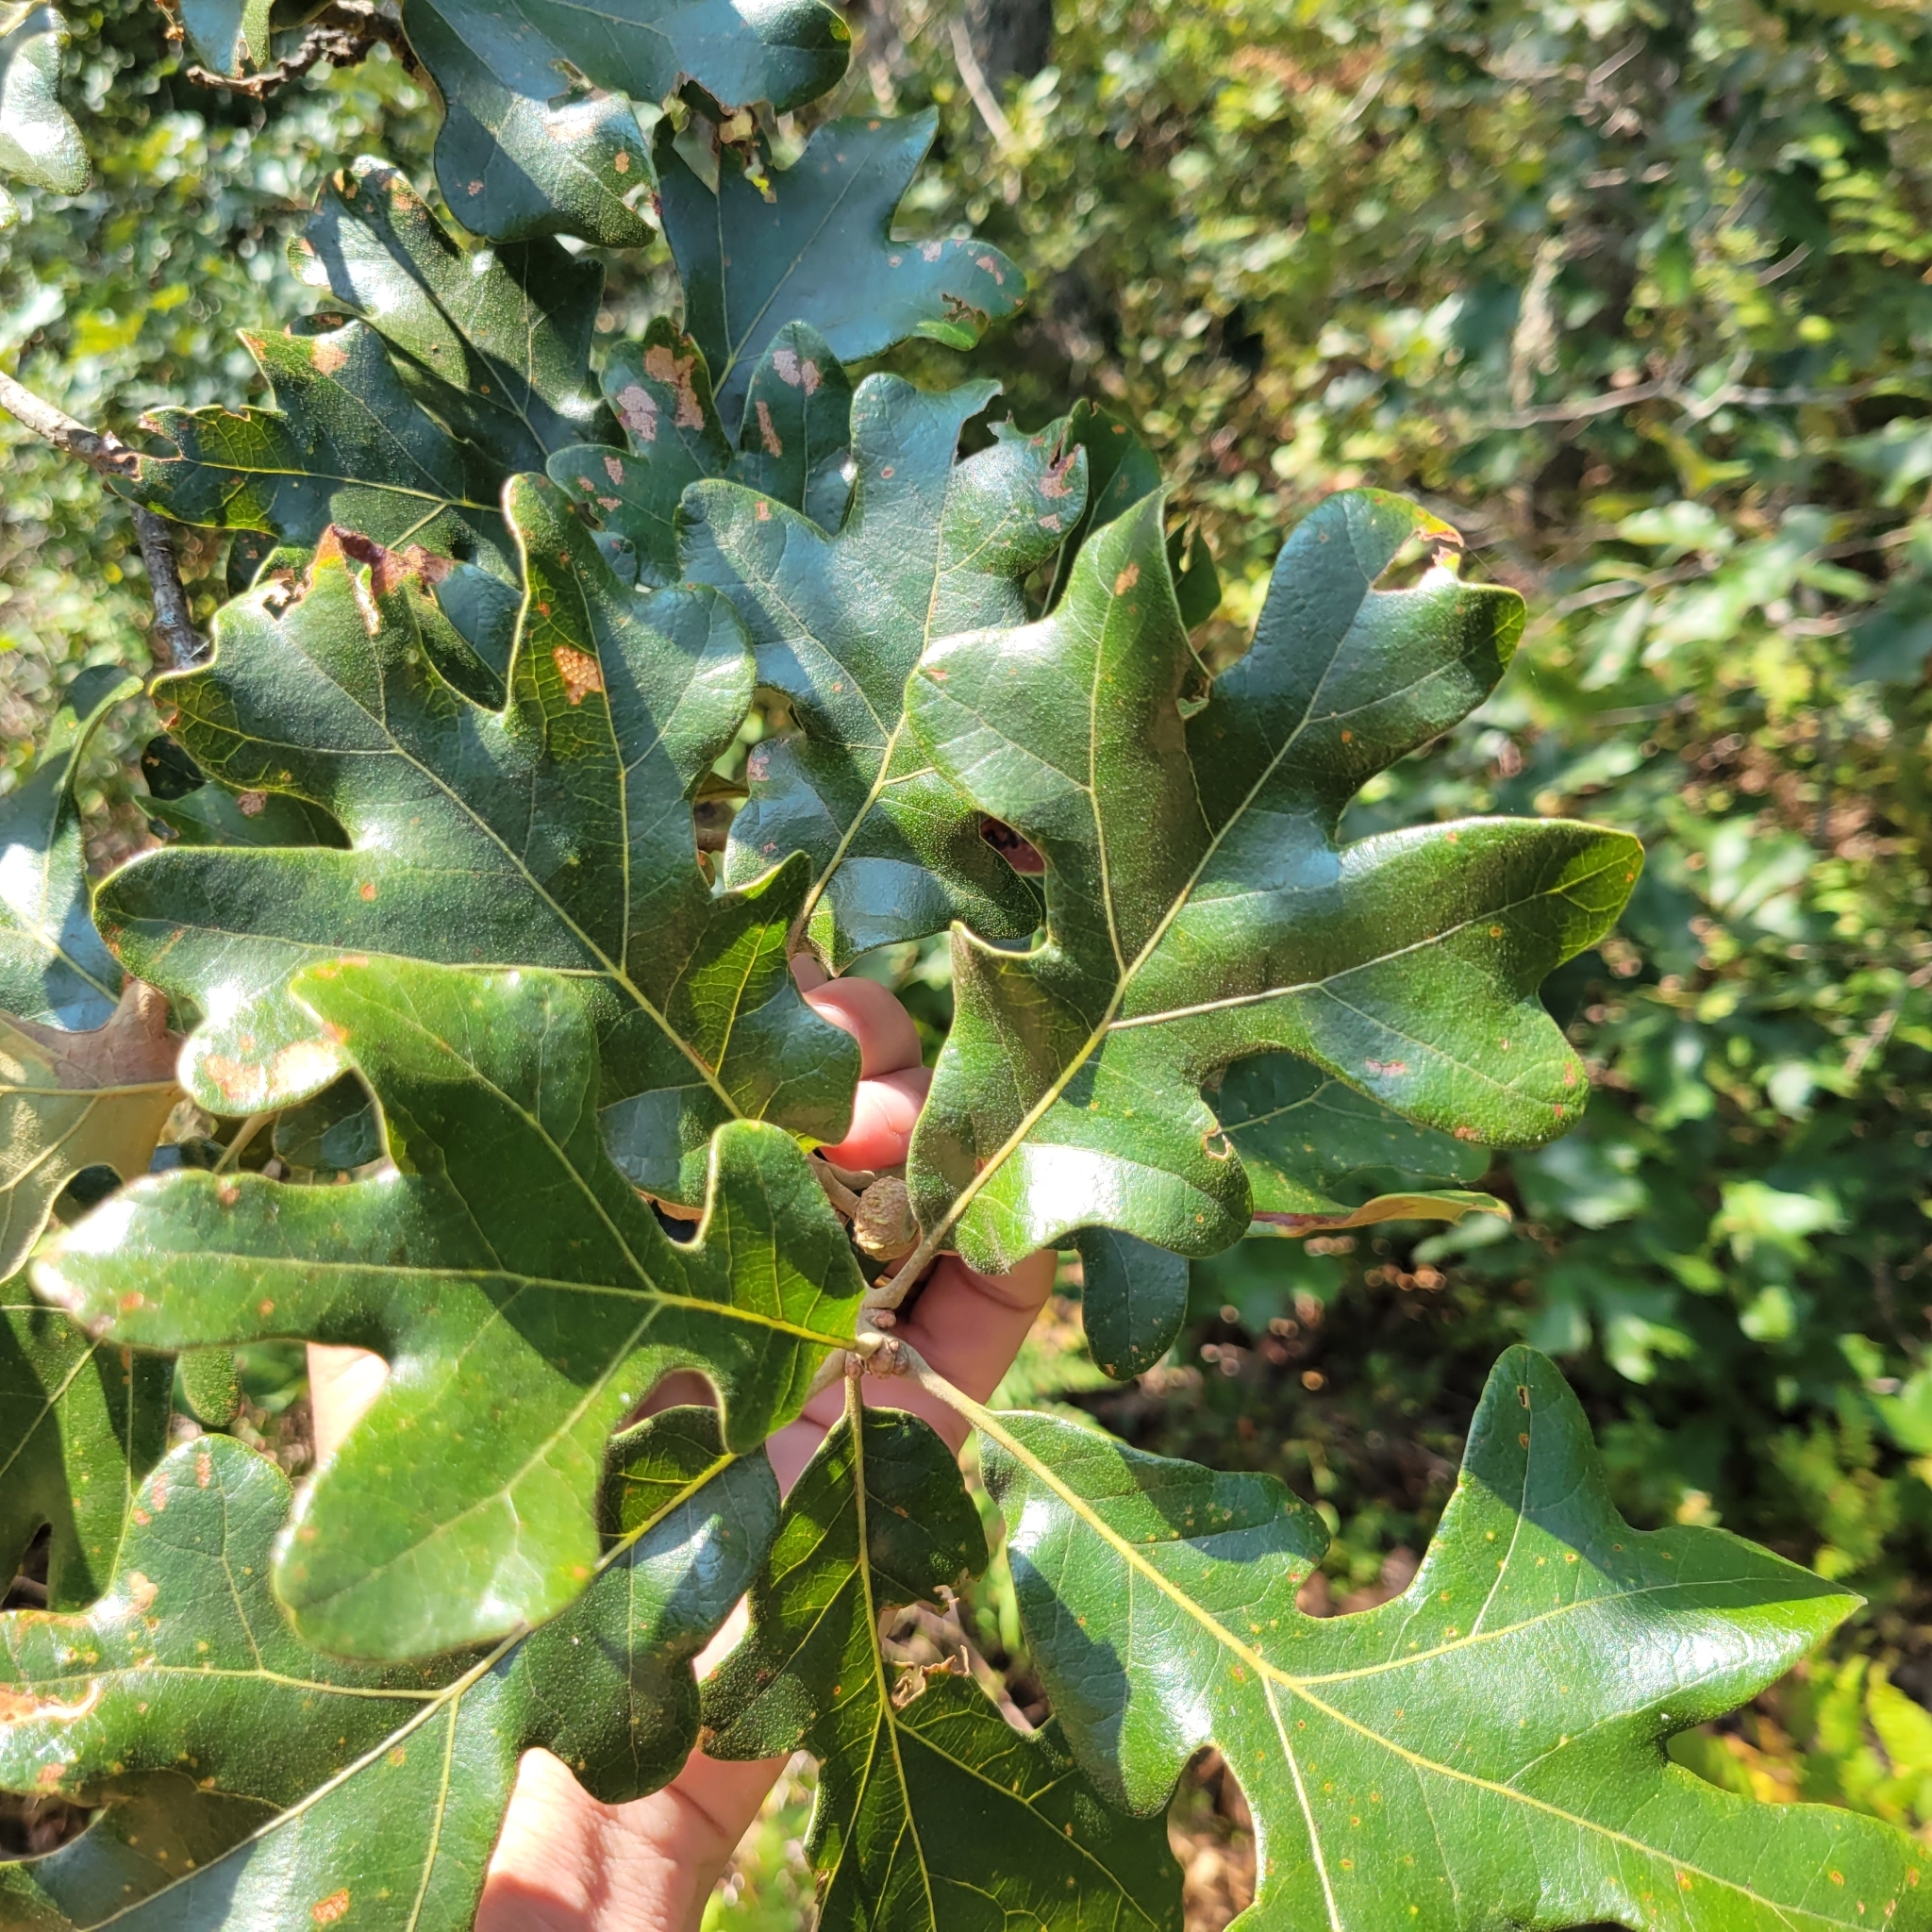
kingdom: Plantae
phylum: Tracheophyta
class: Magnoliopsida
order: Fagales
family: Fagaceae
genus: Quercus
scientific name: Quercus stellata
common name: Post oak
